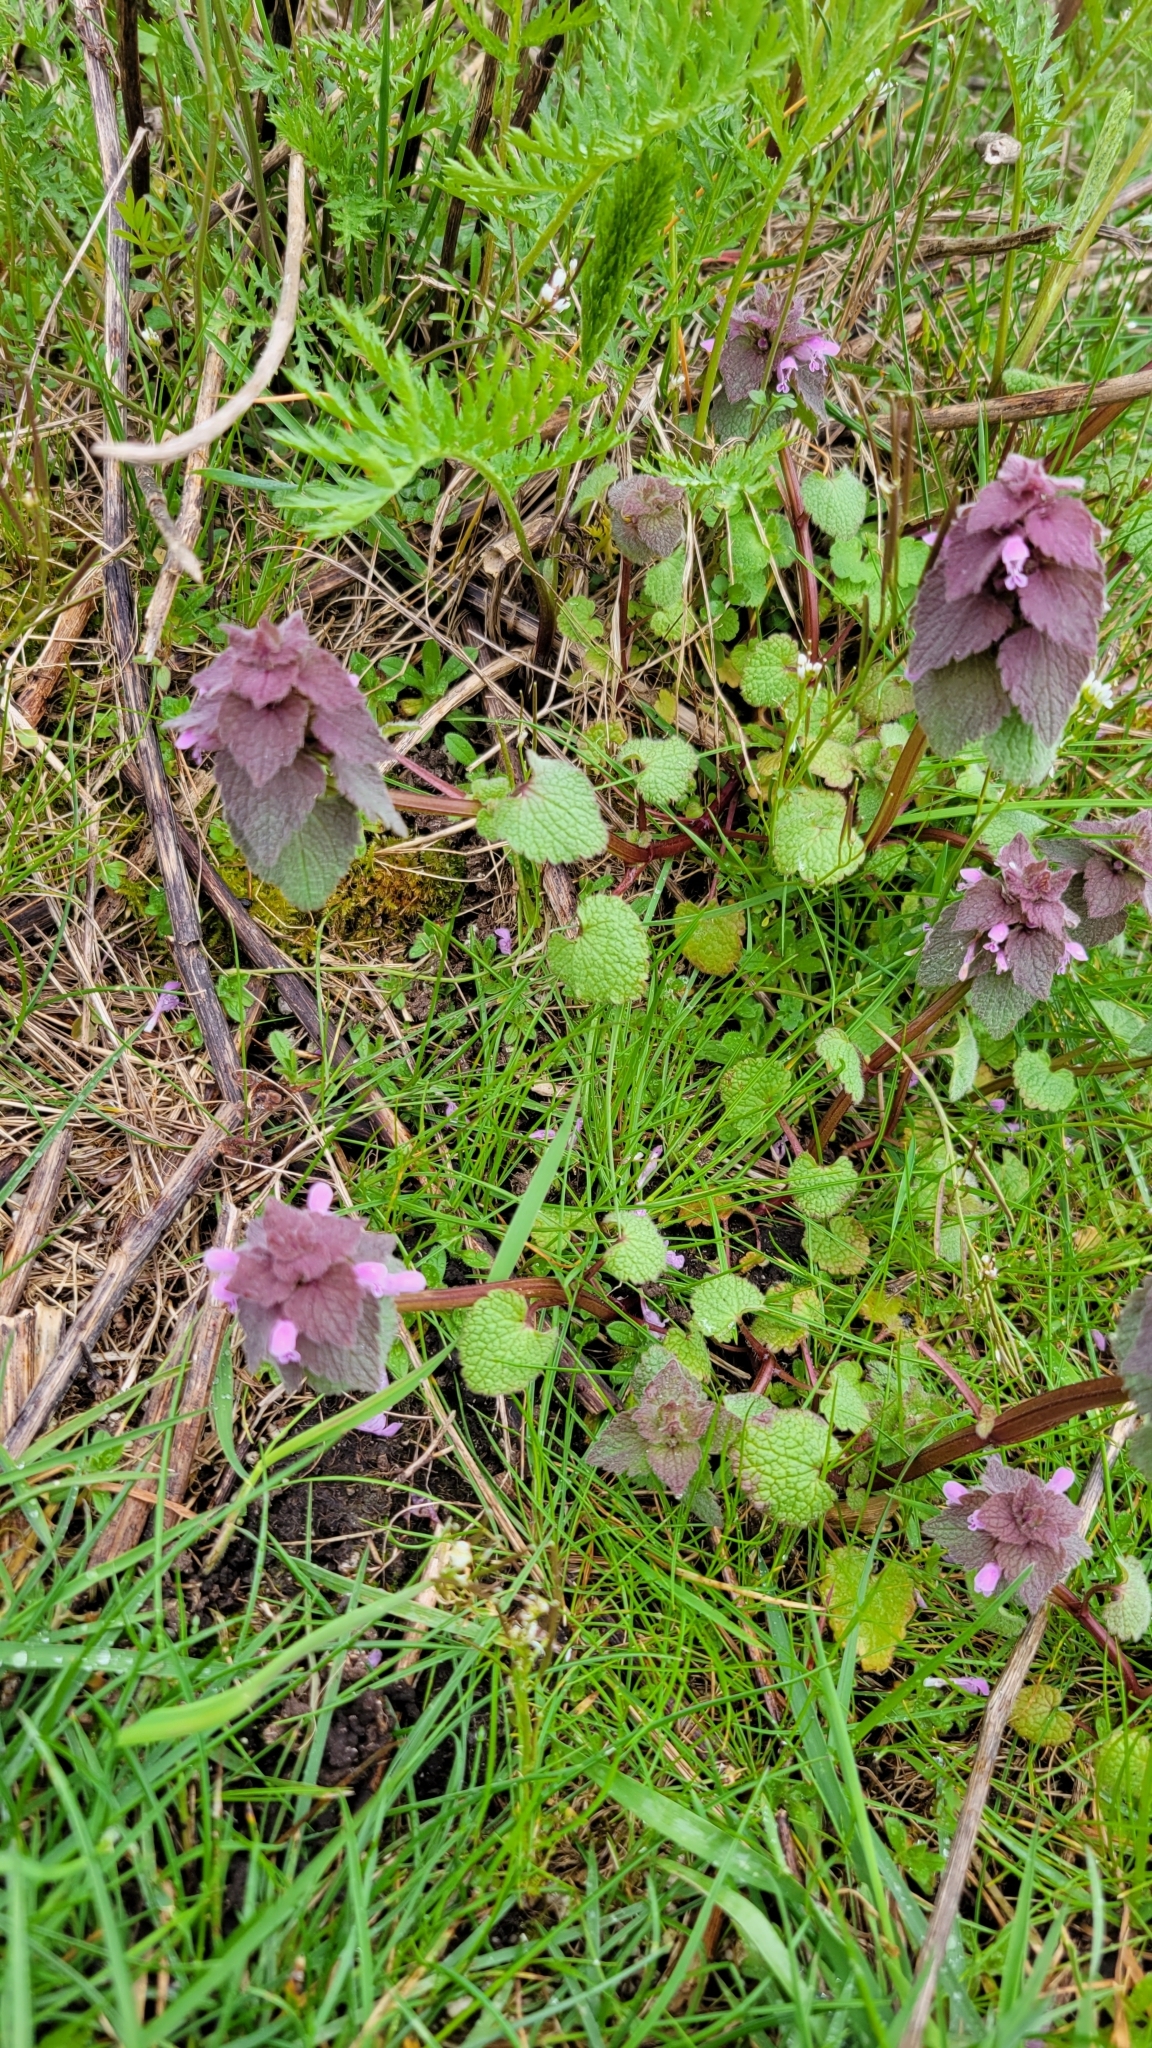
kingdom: Plantae
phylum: Tracheophyta
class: Magnoliopsida
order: Lamiales
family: Lamiaceae
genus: Lamium
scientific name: Lamium purpureum
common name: Red dead-nettle
